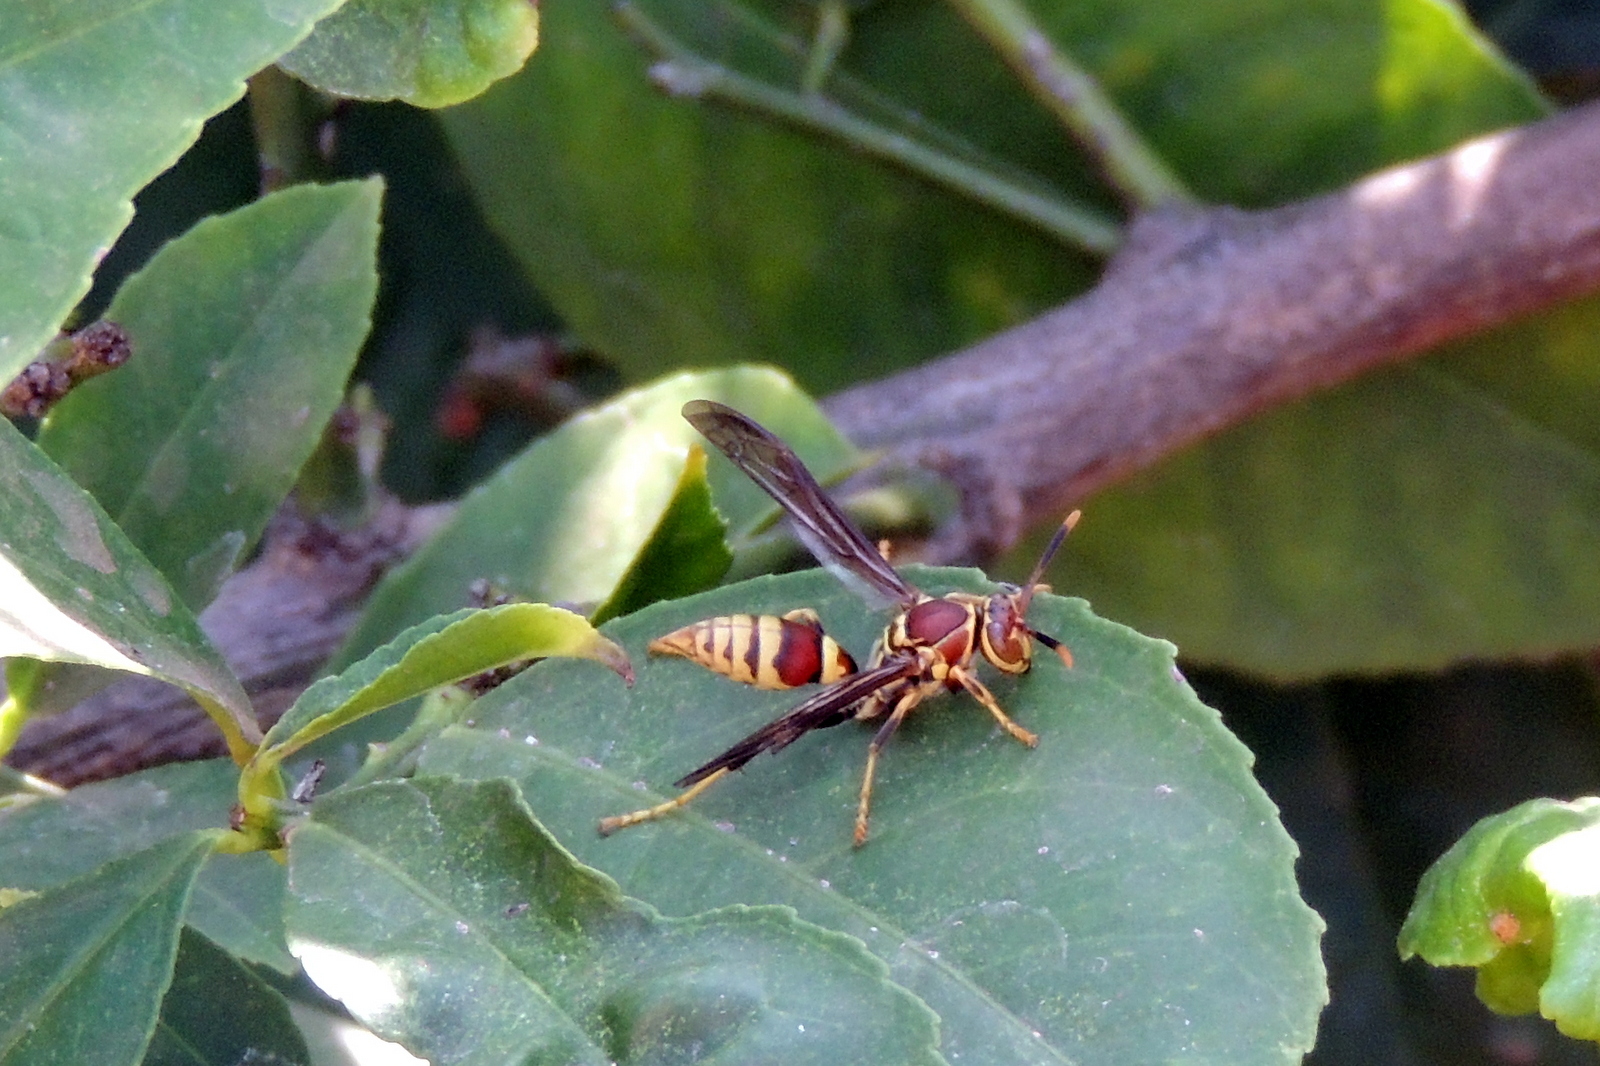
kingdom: Animalia
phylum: Arthropoda
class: Insecta
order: Hymenoptera
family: Eumenidae
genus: Polistes
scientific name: Polistes exclamans
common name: Paper wasp
